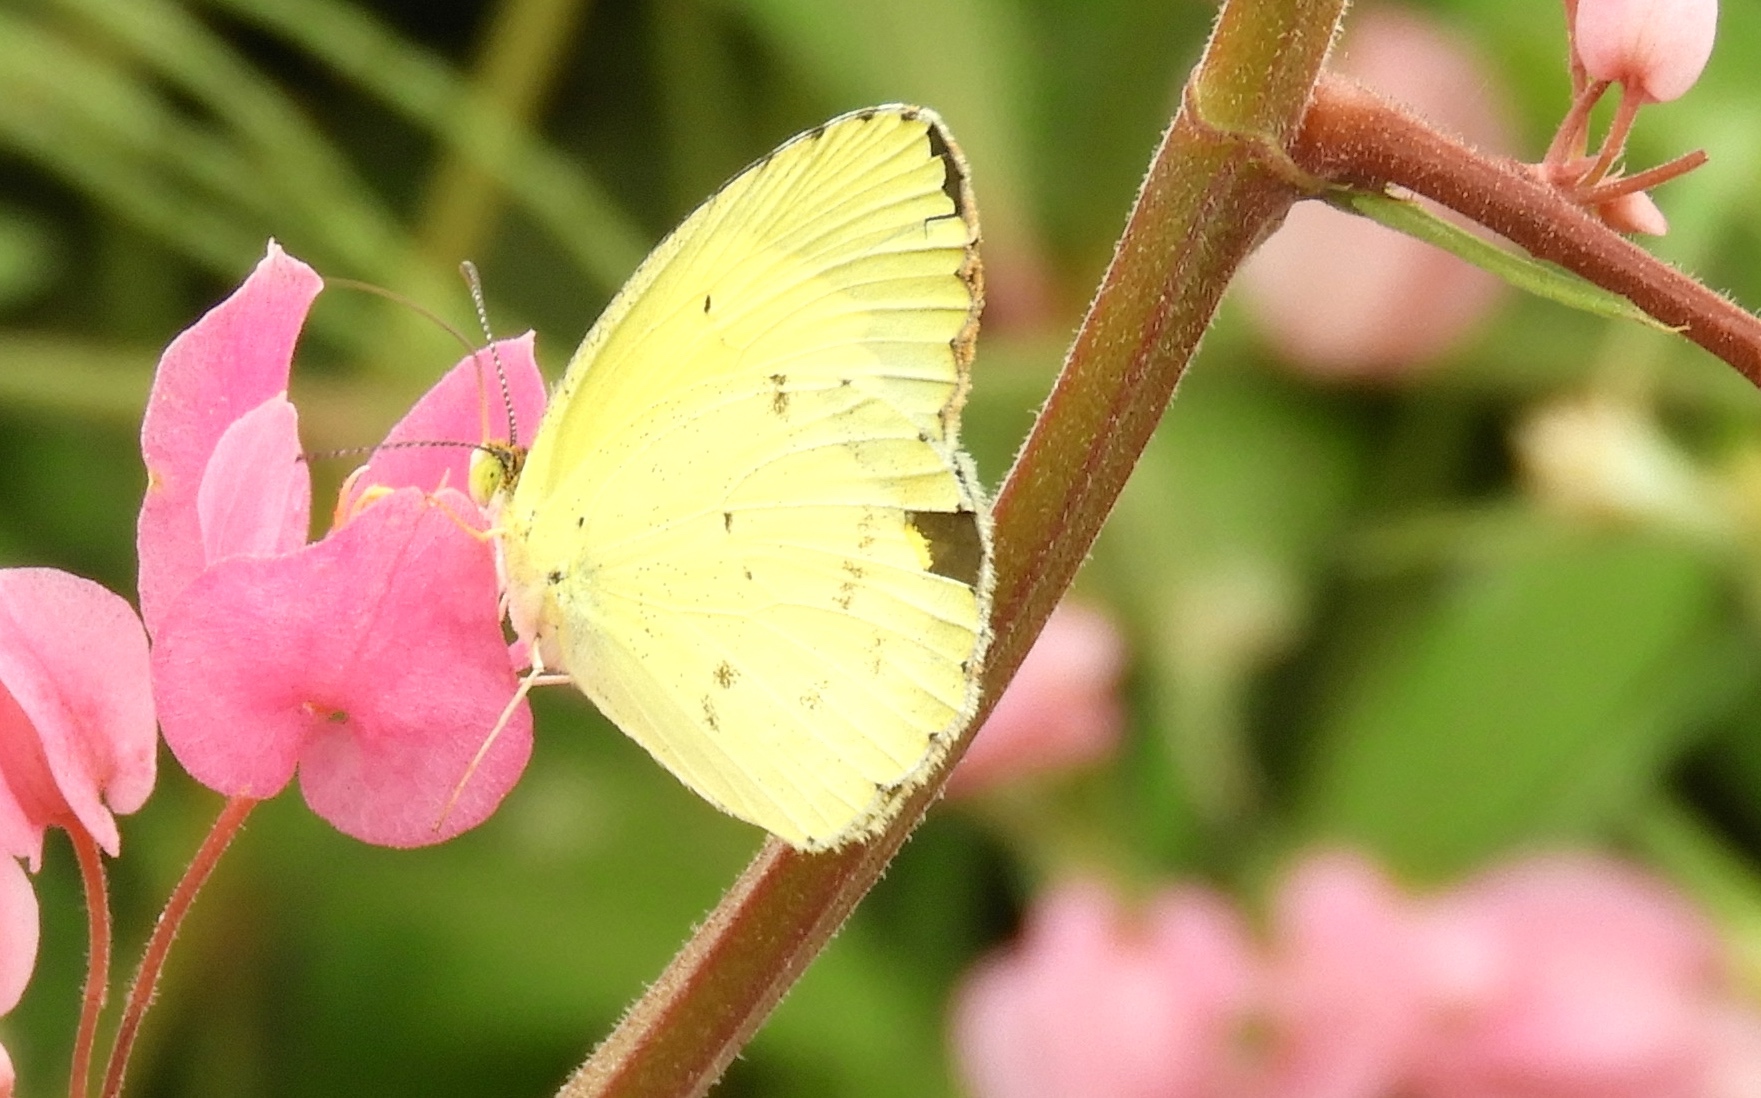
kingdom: Animalia
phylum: Arthropoda
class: Insecta
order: Lepidoptera
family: Pieridae
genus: Pyrisitia
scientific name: Pyrisitia nise
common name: Mimosa yellow
